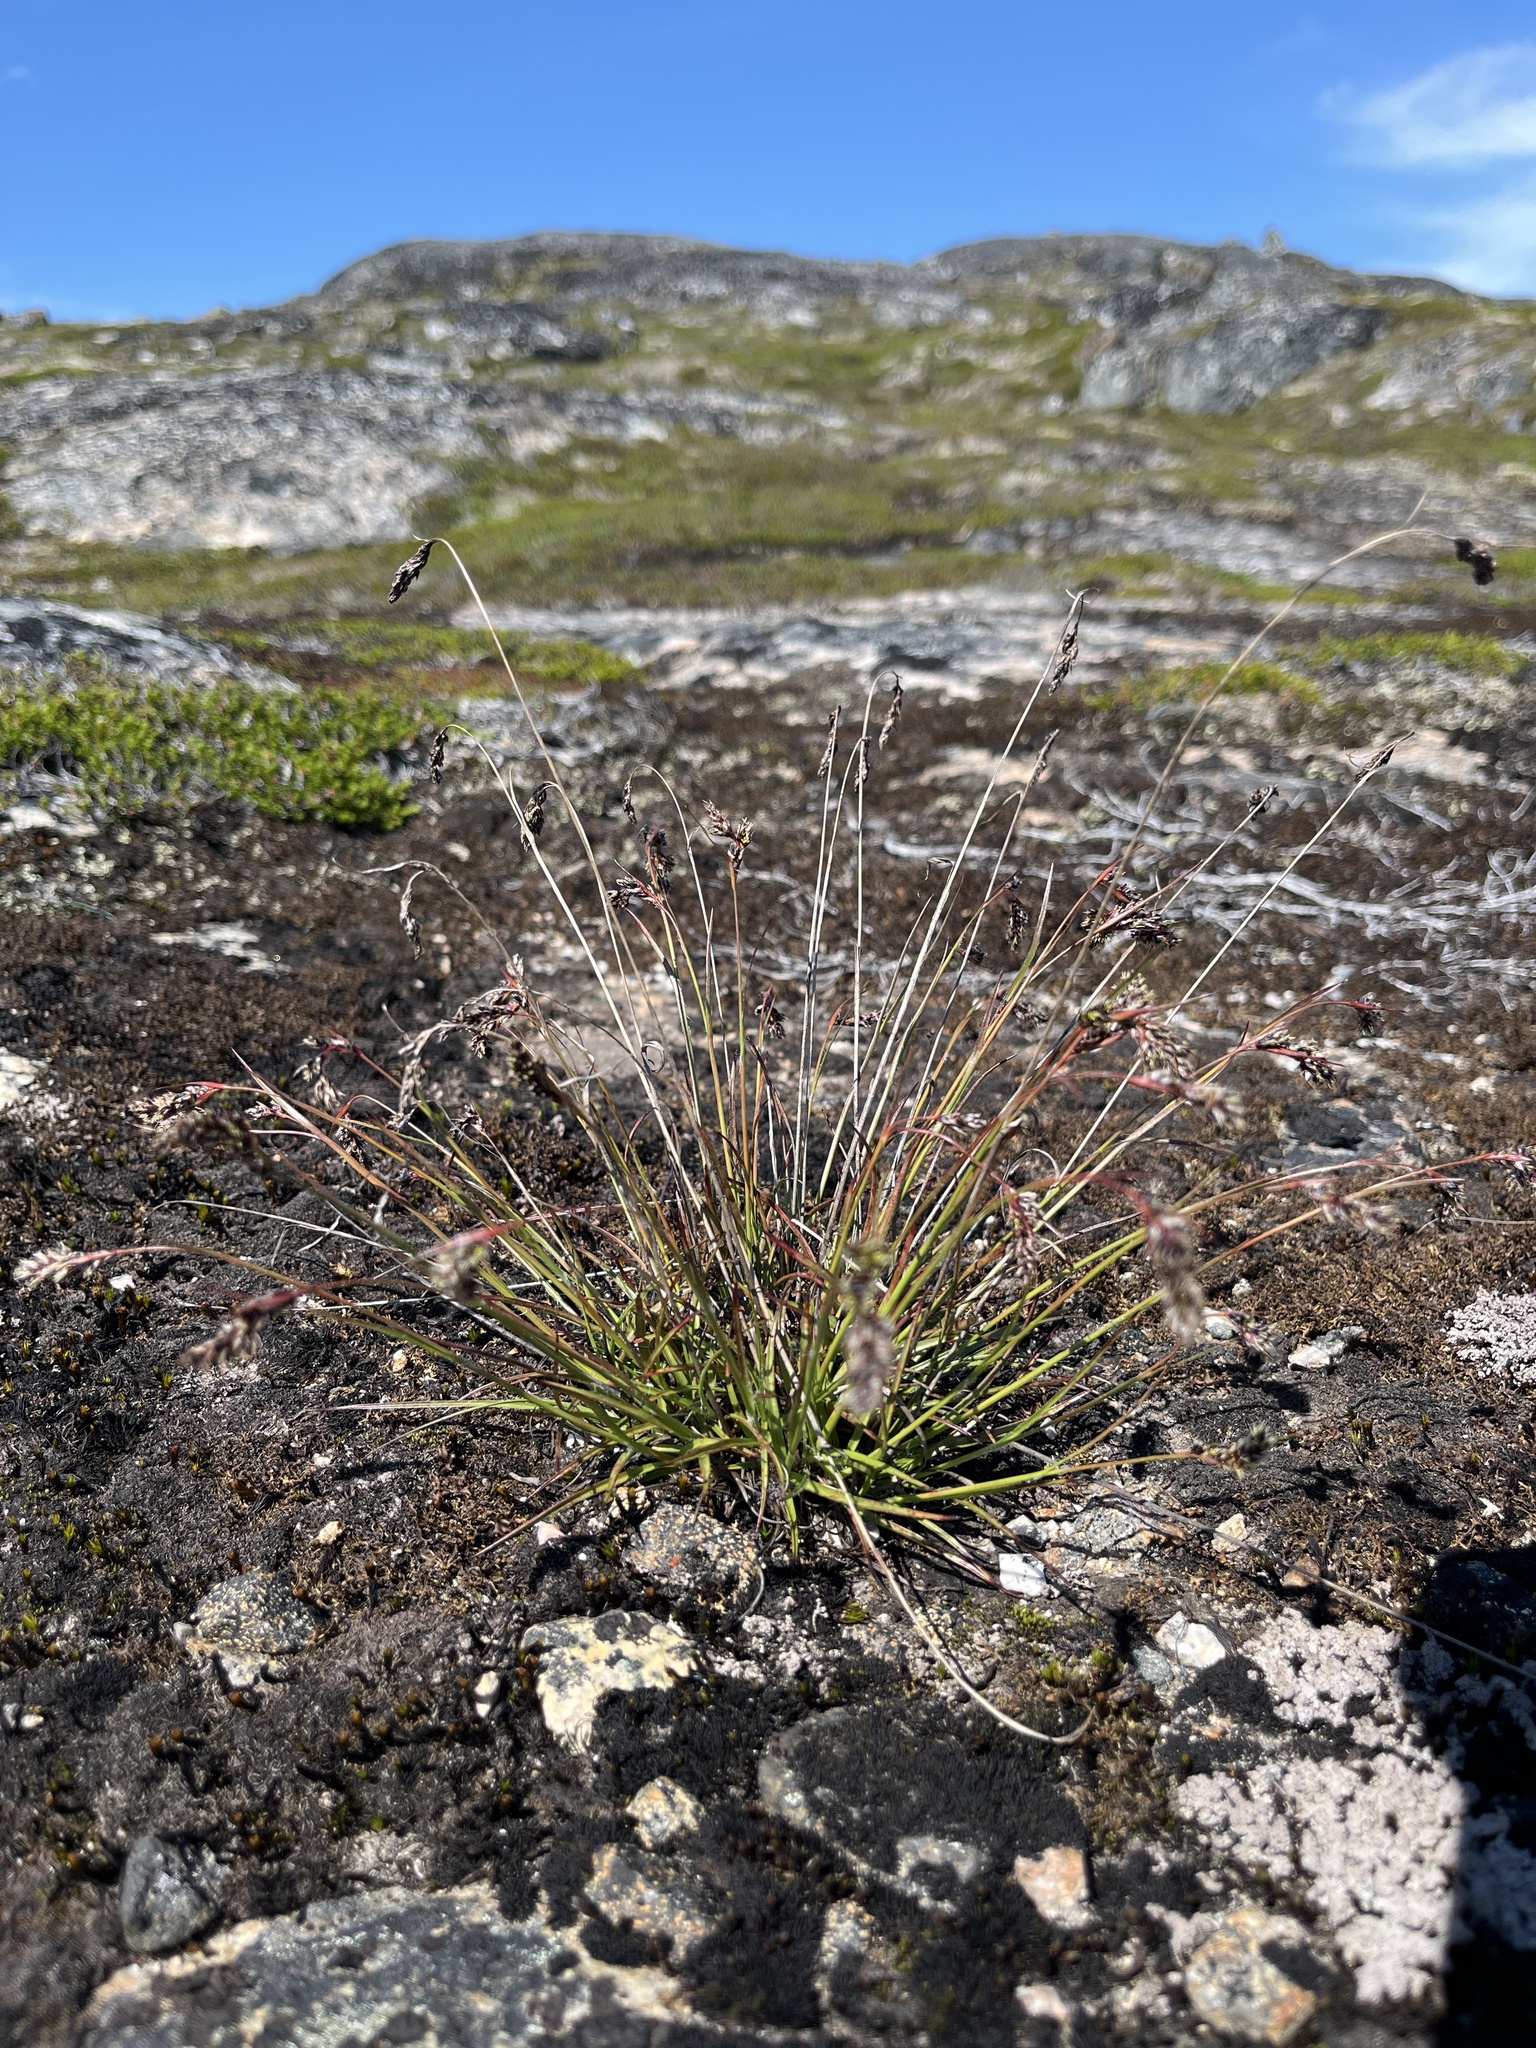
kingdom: Plantae
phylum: Tracheophyta
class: Liliopsida
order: Poales
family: Juncaceae
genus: Luzula
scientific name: Luzula spicata
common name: Spiked wood-rush
